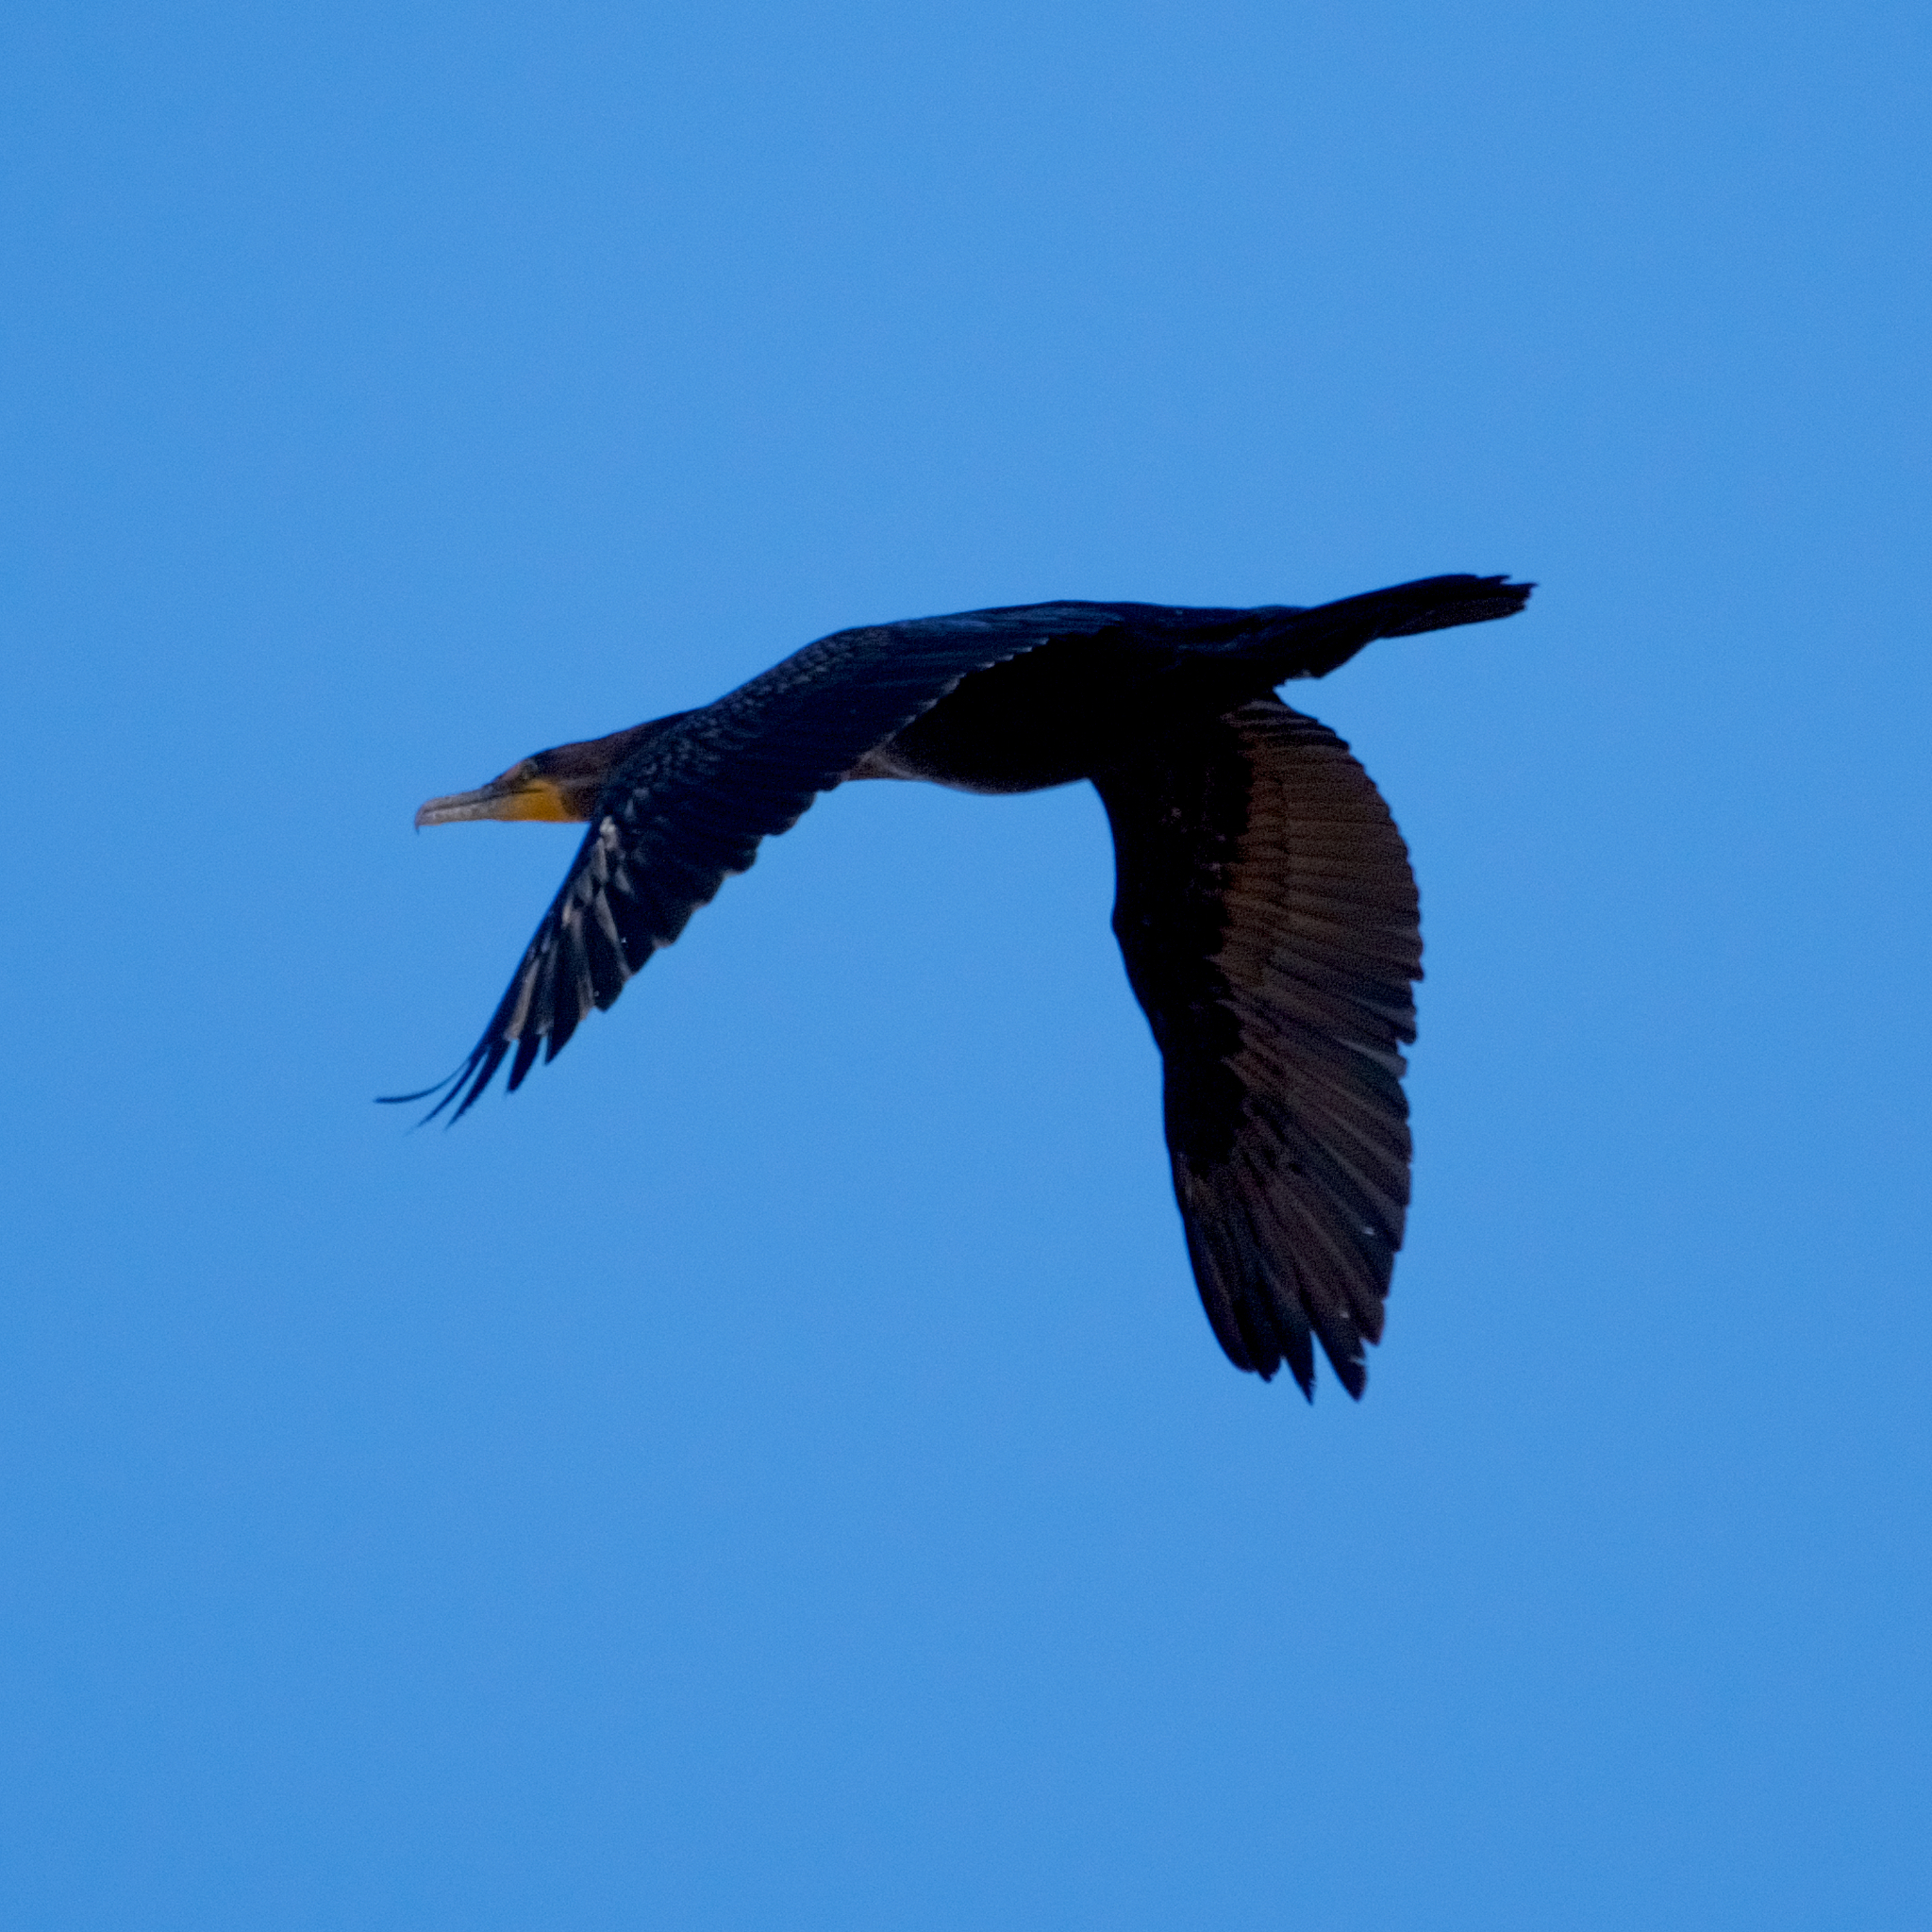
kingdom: Animalia
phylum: Chordata
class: Aves
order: Suliformes
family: Phalacrocoracidae
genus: Phalacrocorax
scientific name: Phalacrocorax auritus
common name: Double-crested cormorant
